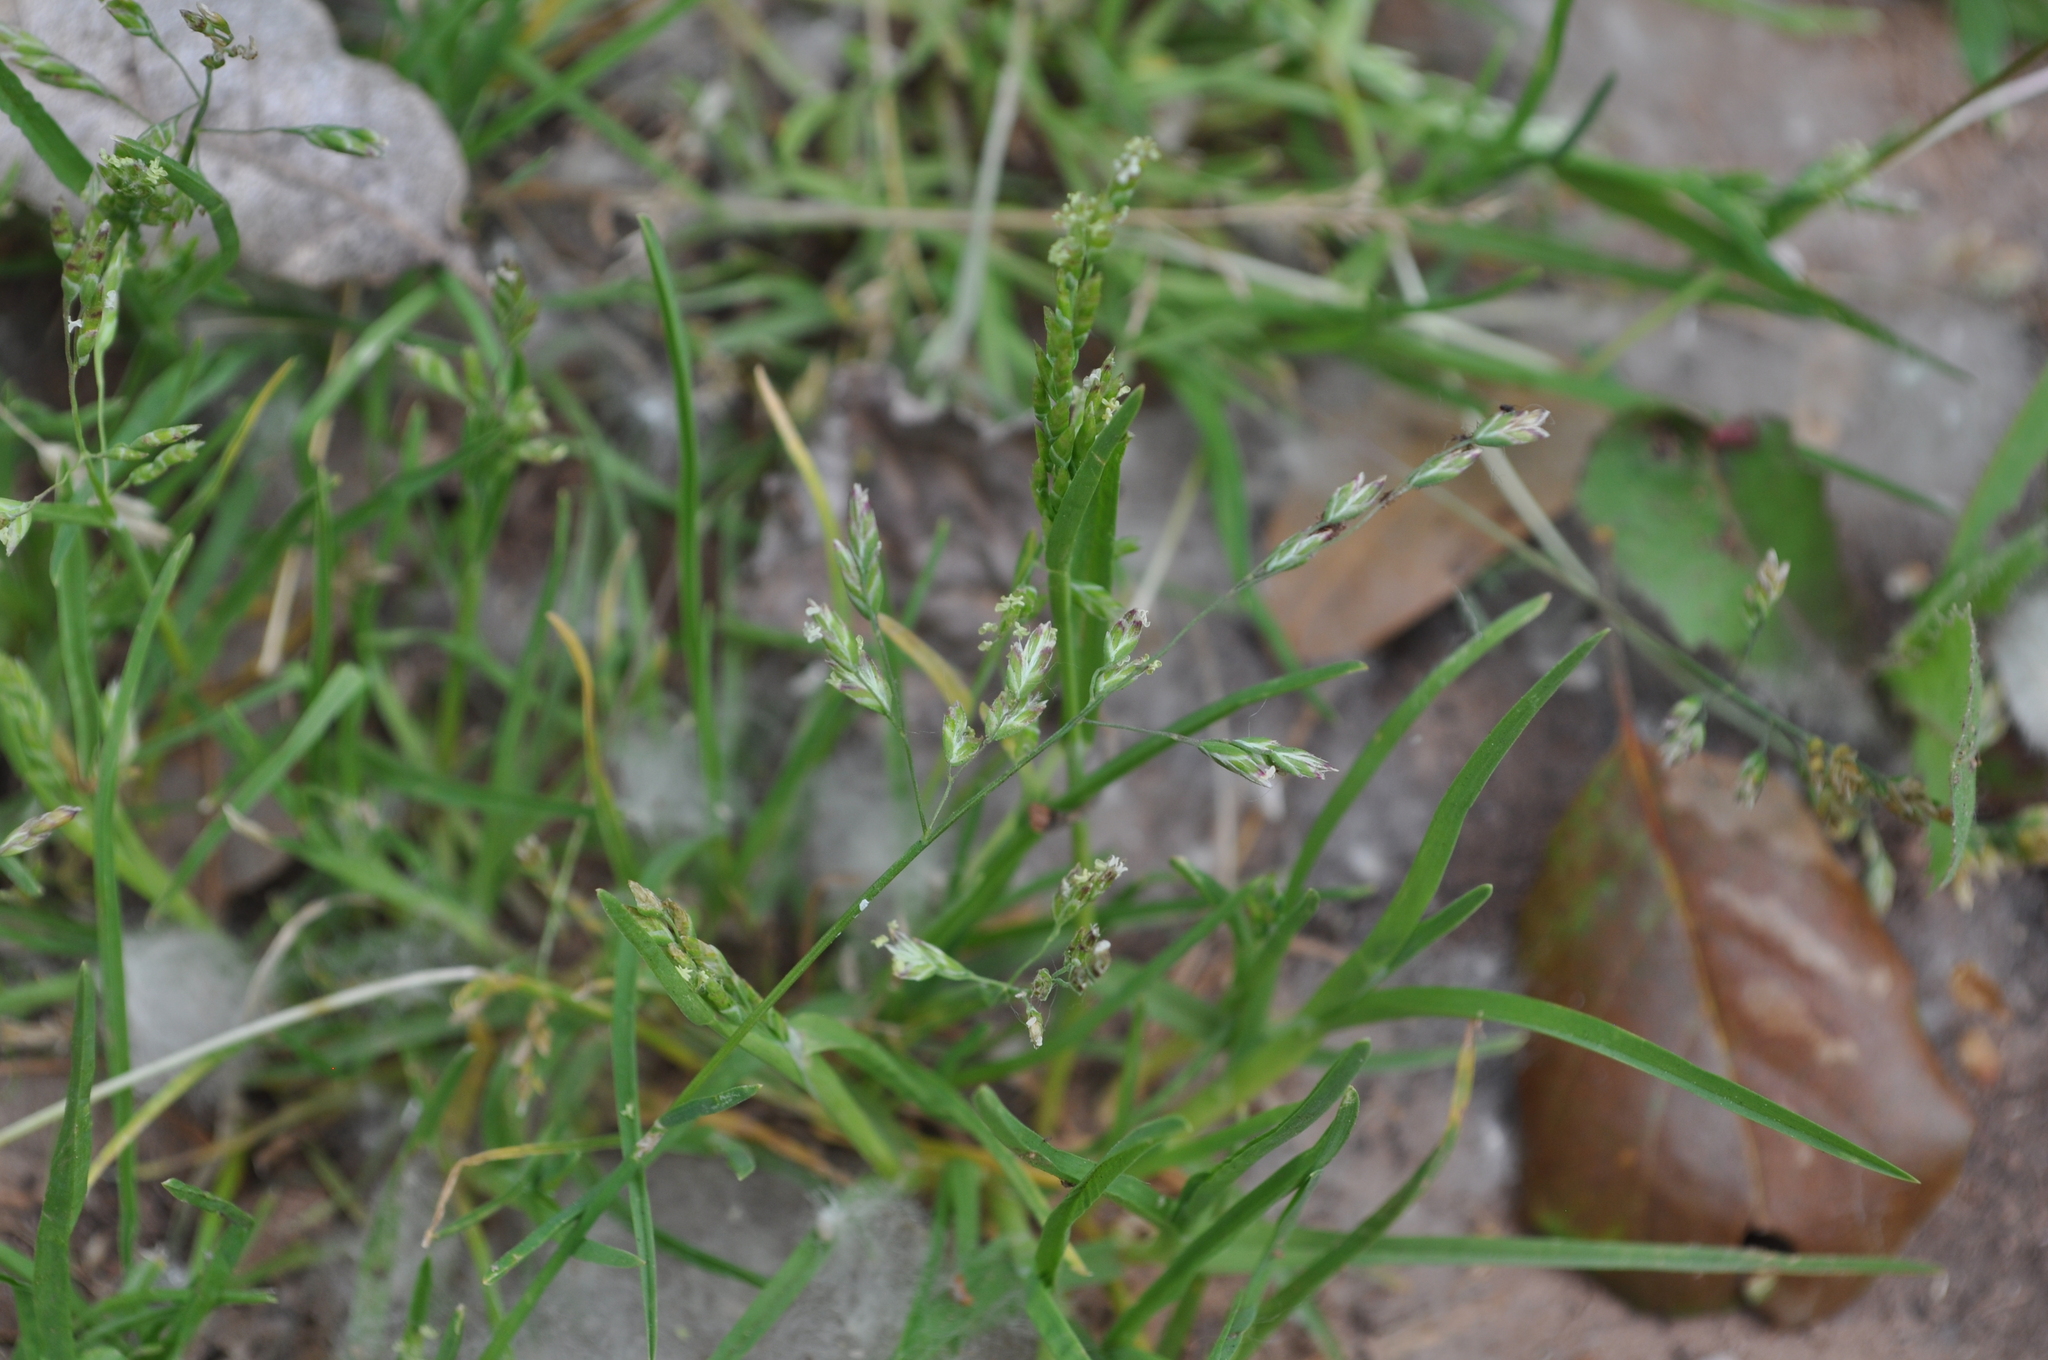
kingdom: Plantae
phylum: Tracheophyta
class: Liliopsida
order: Poales
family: Poaceae
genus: Poa
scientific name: Poa annua
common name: Annual bluegrass
